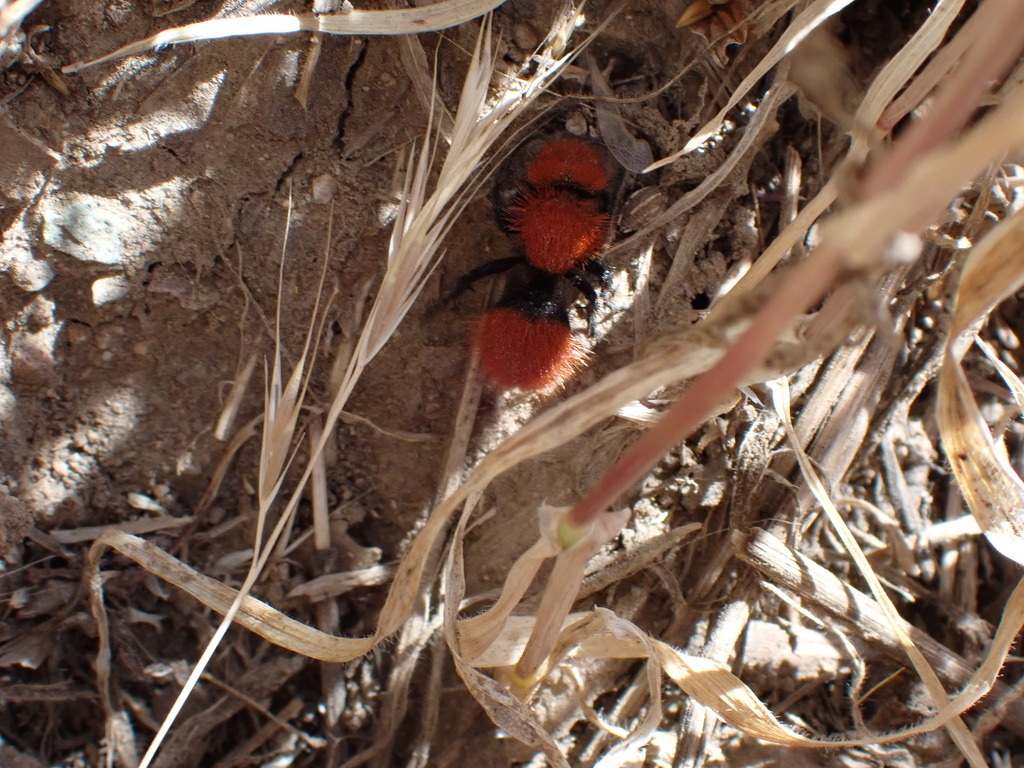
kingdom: Animalia
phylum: Arthropoda
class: Insecta
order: Hymenoptera
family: Mutillidae
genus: Dasymutilla
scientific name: Dasymutilla
